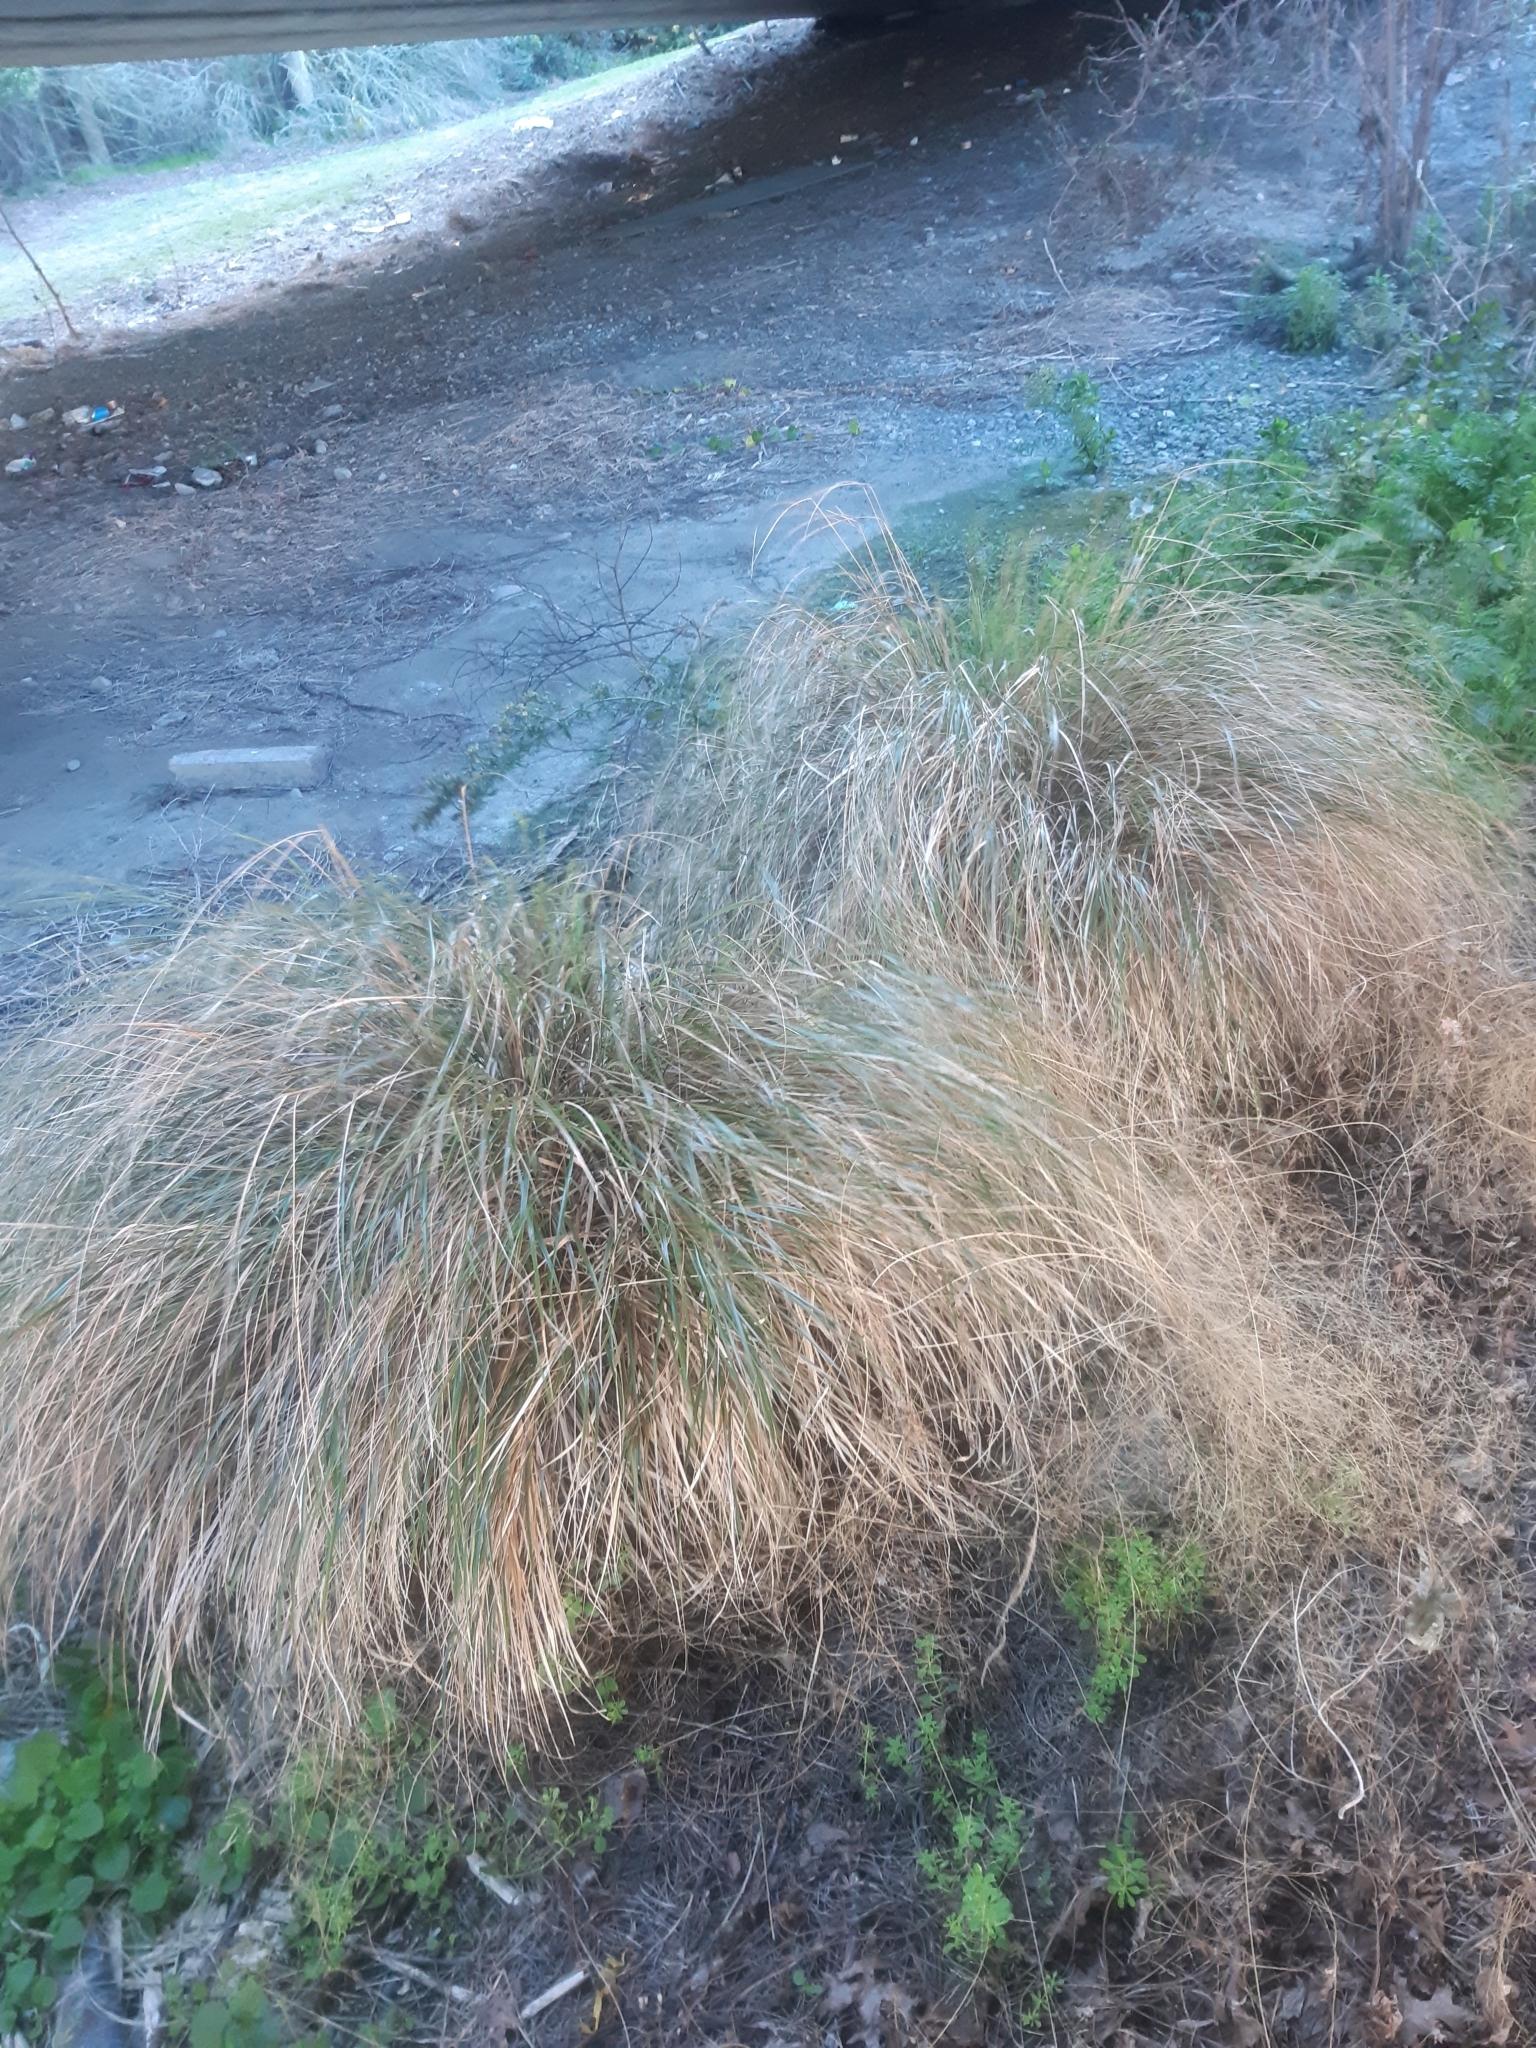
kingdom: Plantae
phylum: Tracheophyta
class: Liliopsida
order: Poales
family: Poaceae
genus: Anemanthele
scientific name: Anemanthele lessoniana
